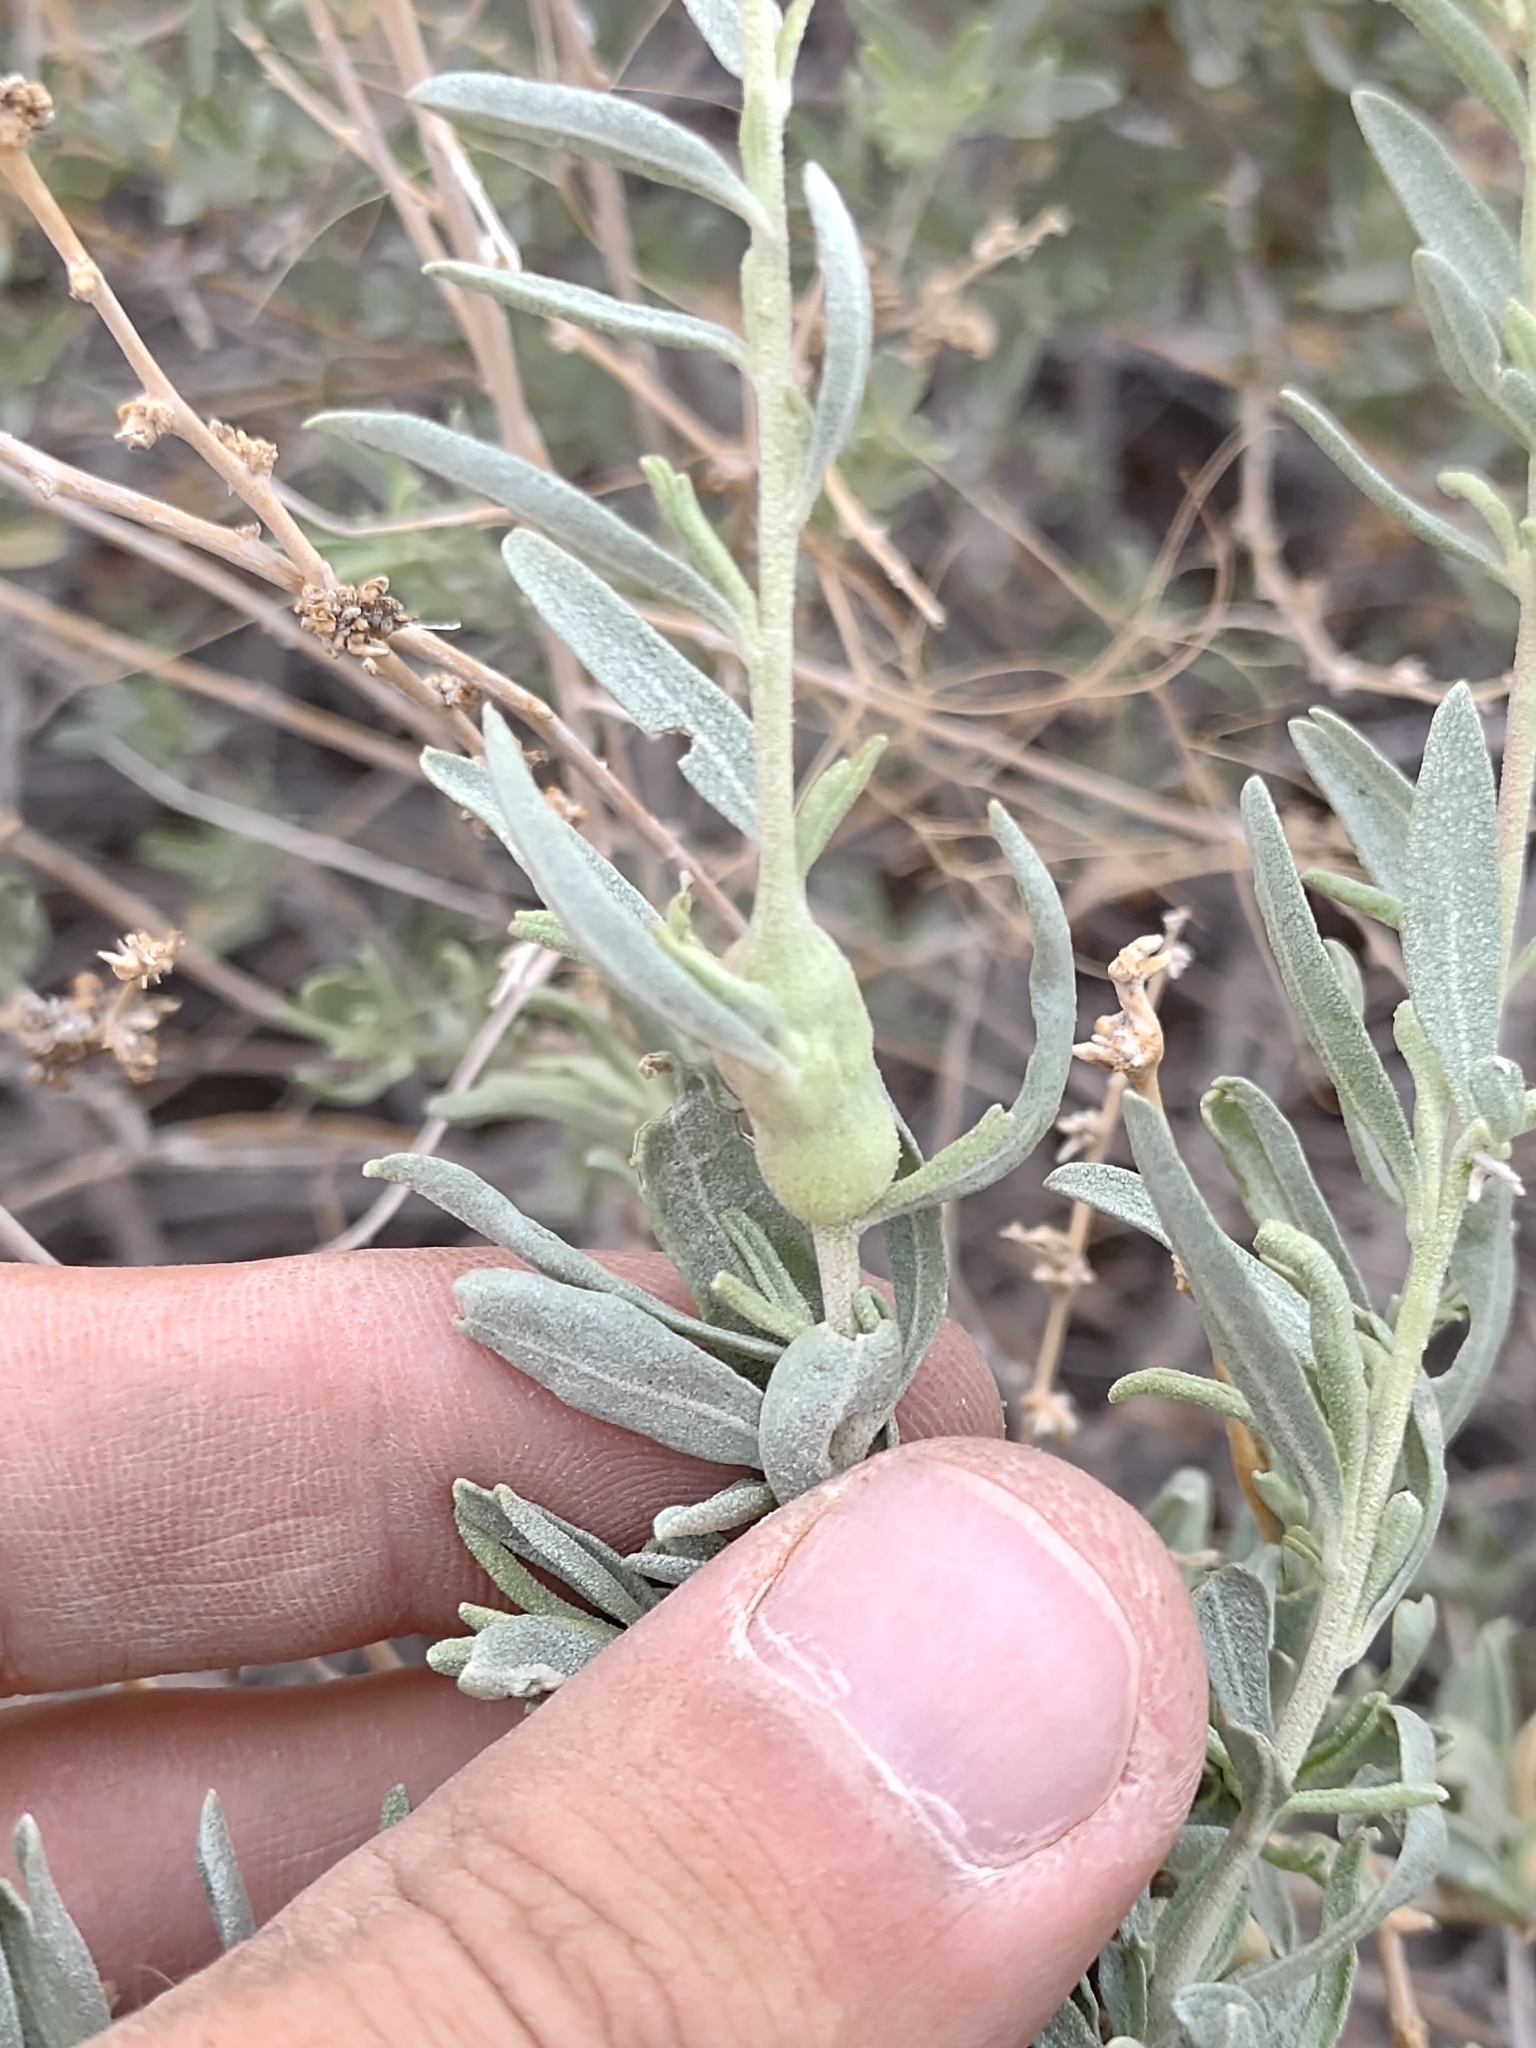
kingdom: Plantae
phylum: Tracheophyta
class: Magnoliopsida
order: Caryophyllales
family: Amaranthaceae
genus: Atriplex
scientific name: Atriplex canescens
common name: Four-wing saltbush
